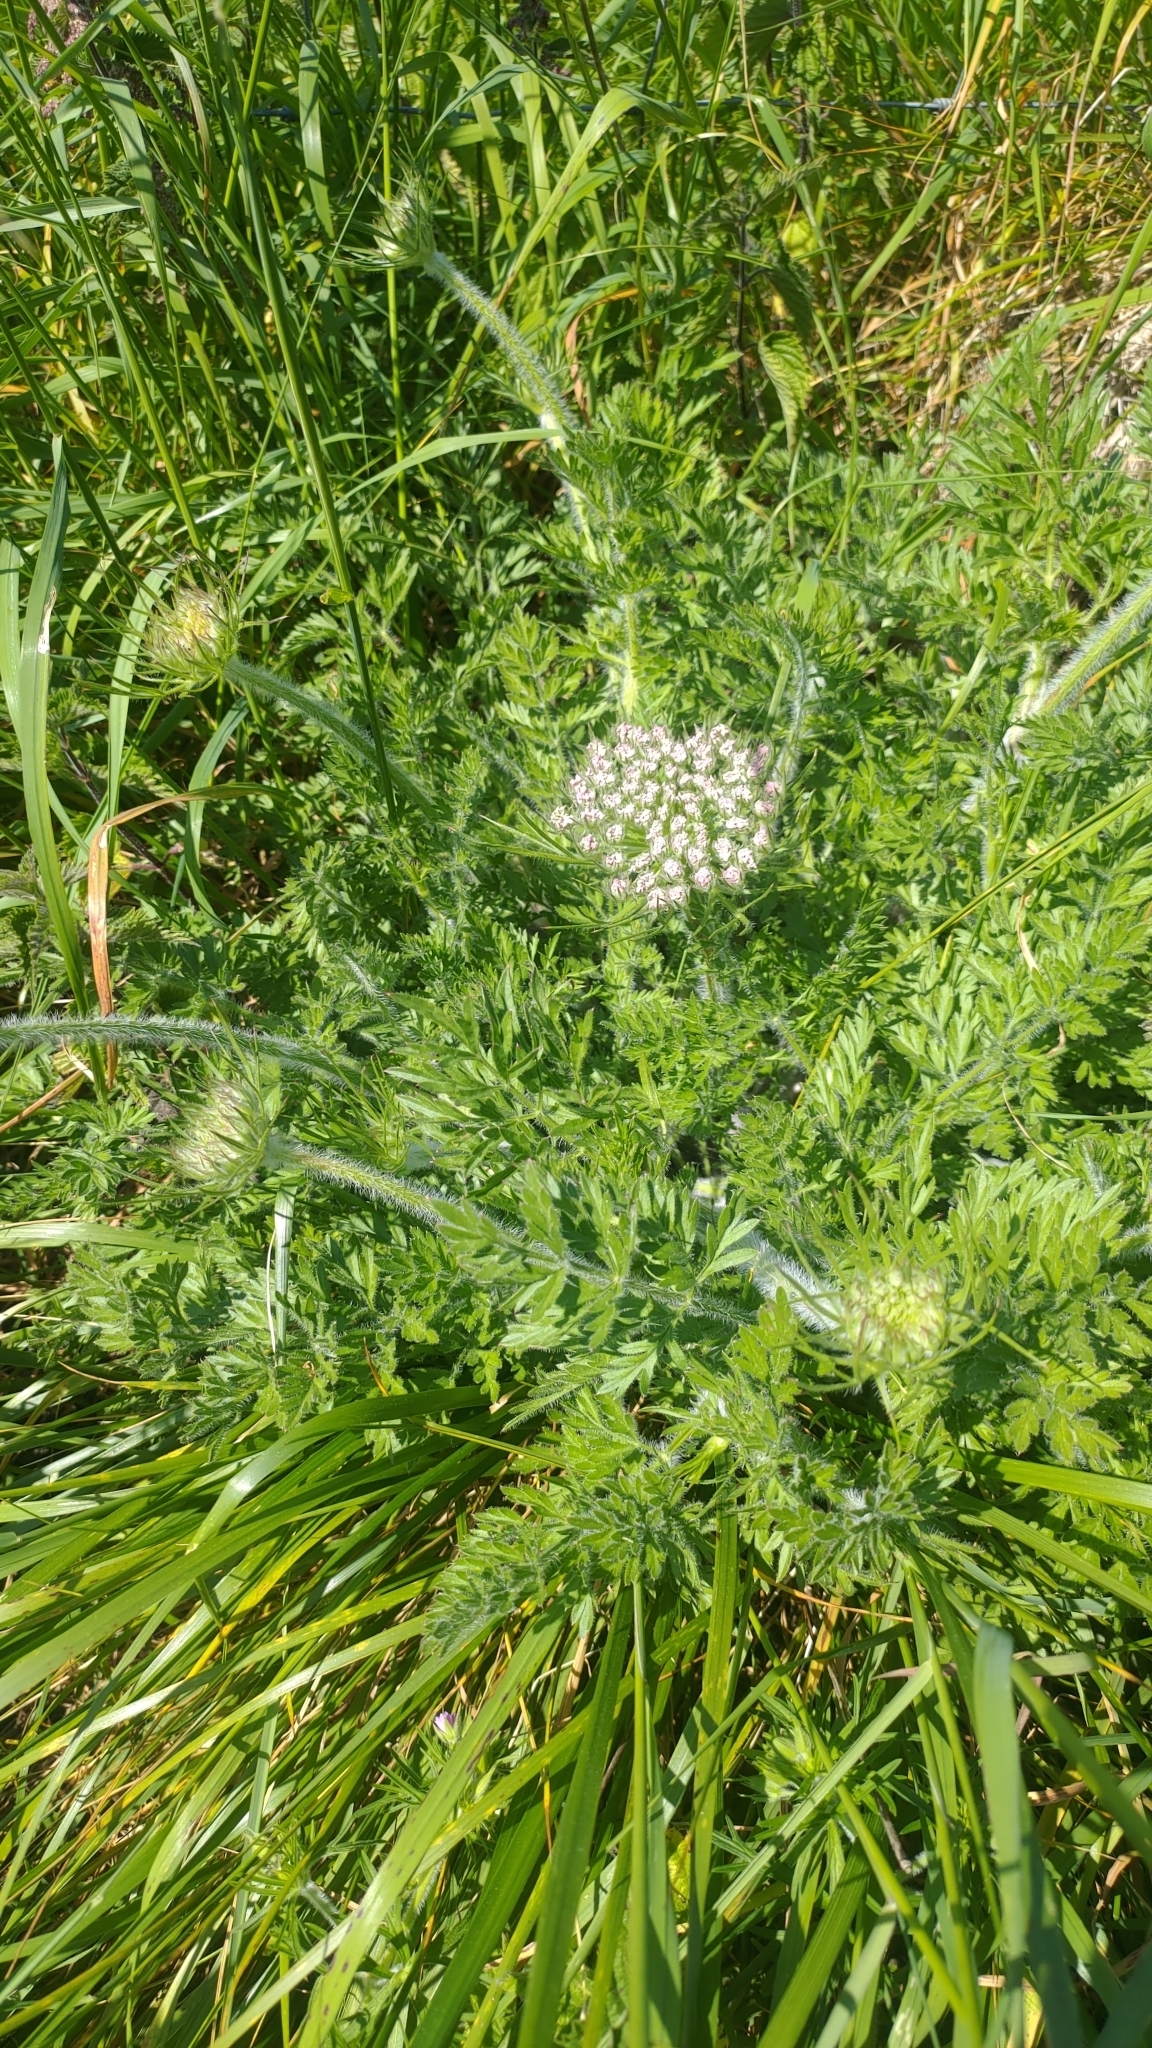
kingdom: Plantae
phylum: Tracheophyta
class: Magnoliopsida
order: Asterales
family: Asteraceae
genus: Achillea
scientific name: Achillea millefolium
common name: Yarrow
